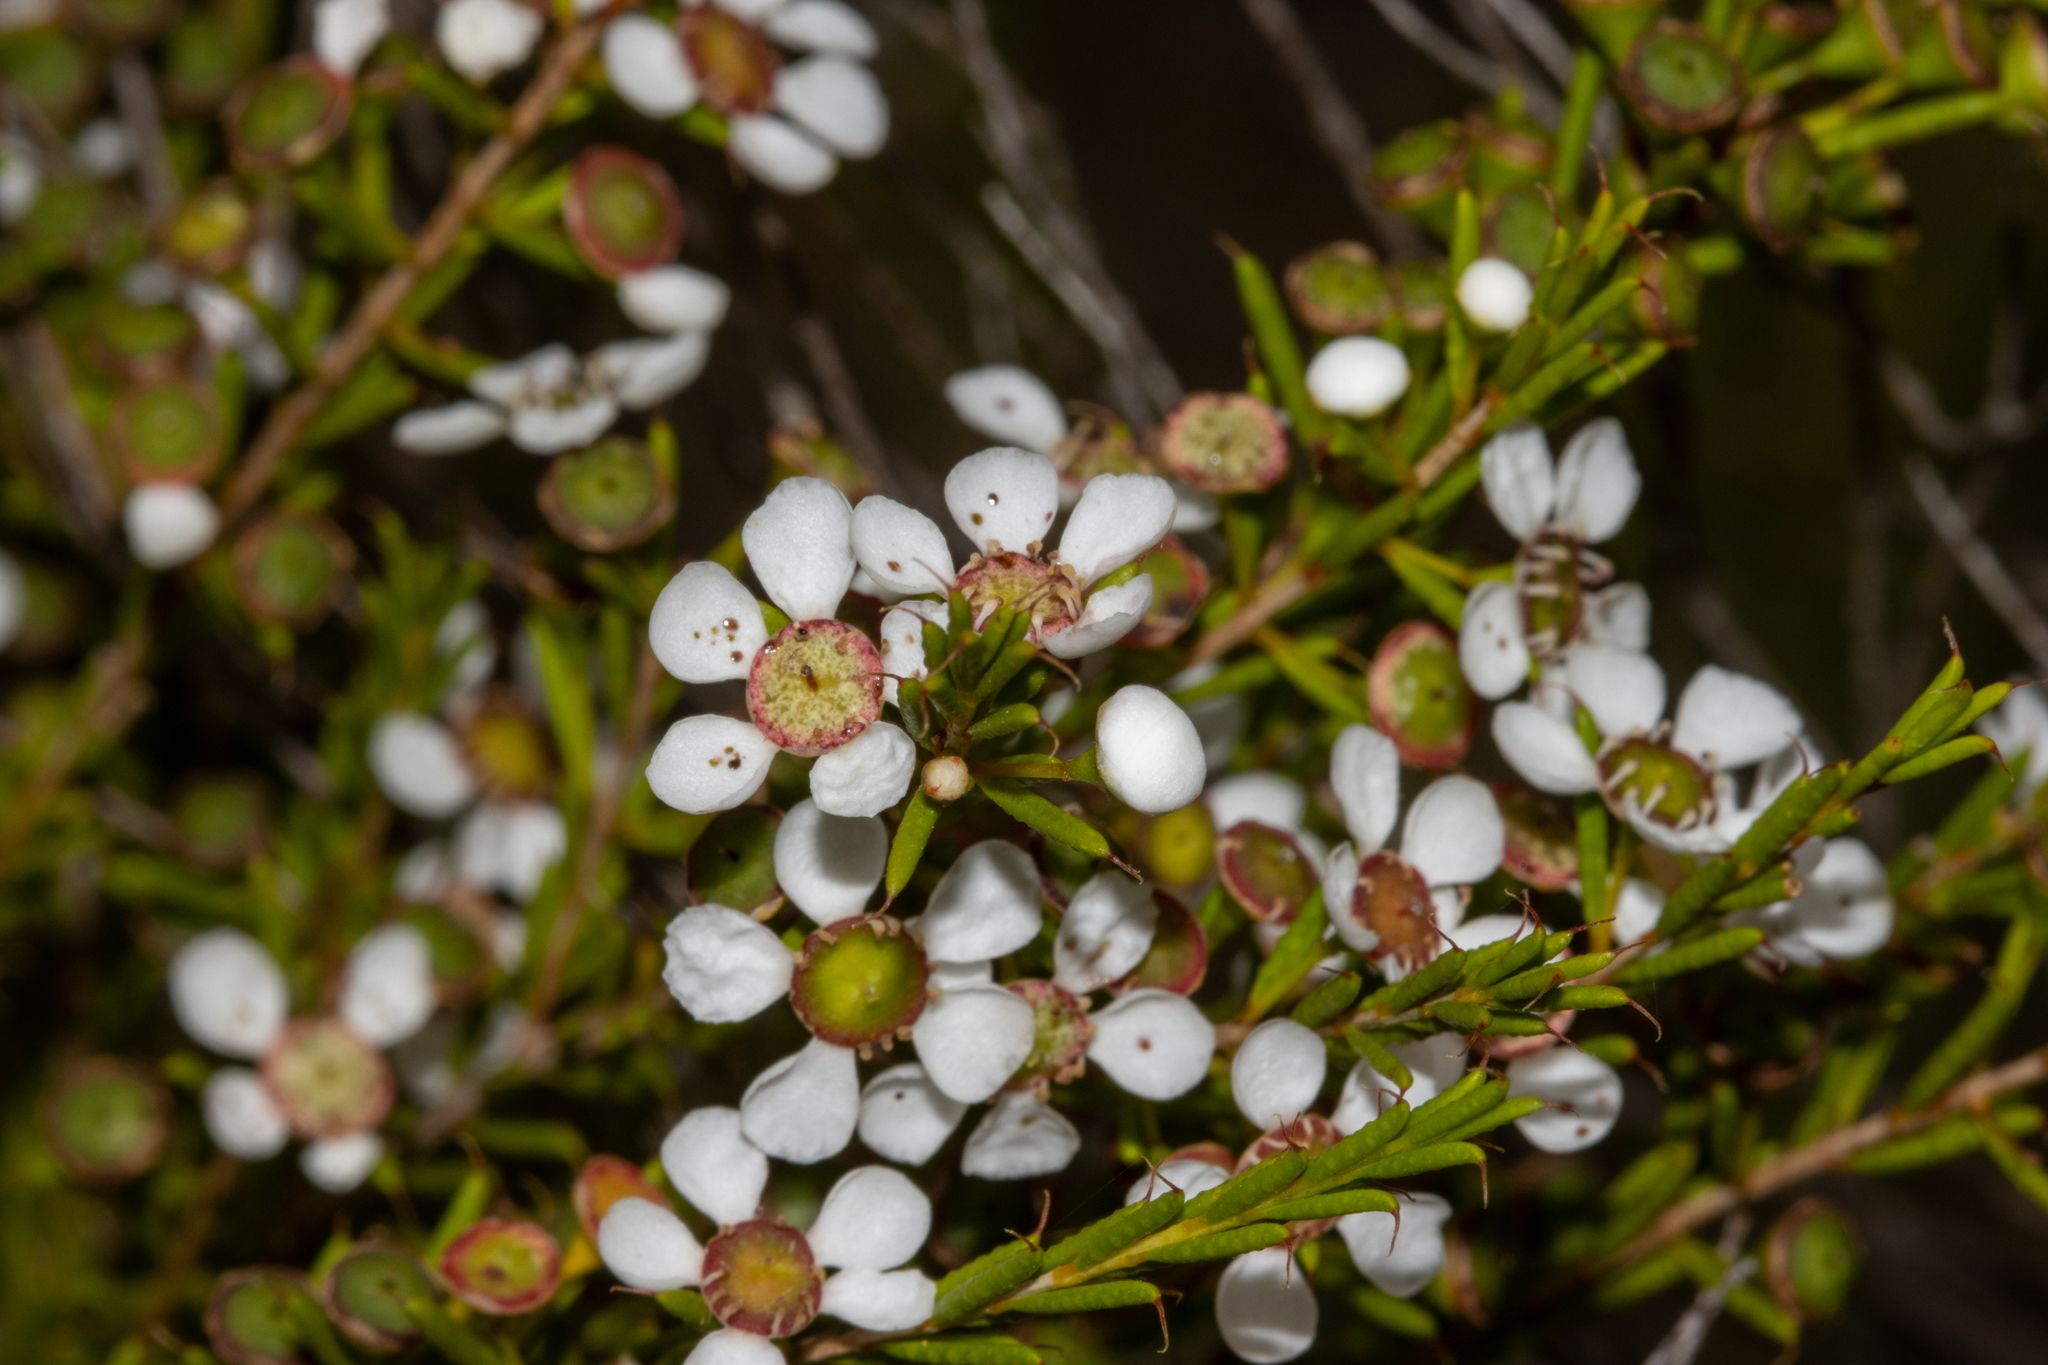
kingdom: Plantae
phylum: Tracheophyta
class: Magnoliopsida
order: Myrtales
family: Myrtaceae
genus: Hysterobaeckea
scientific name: Hysterobaeckea behrii
